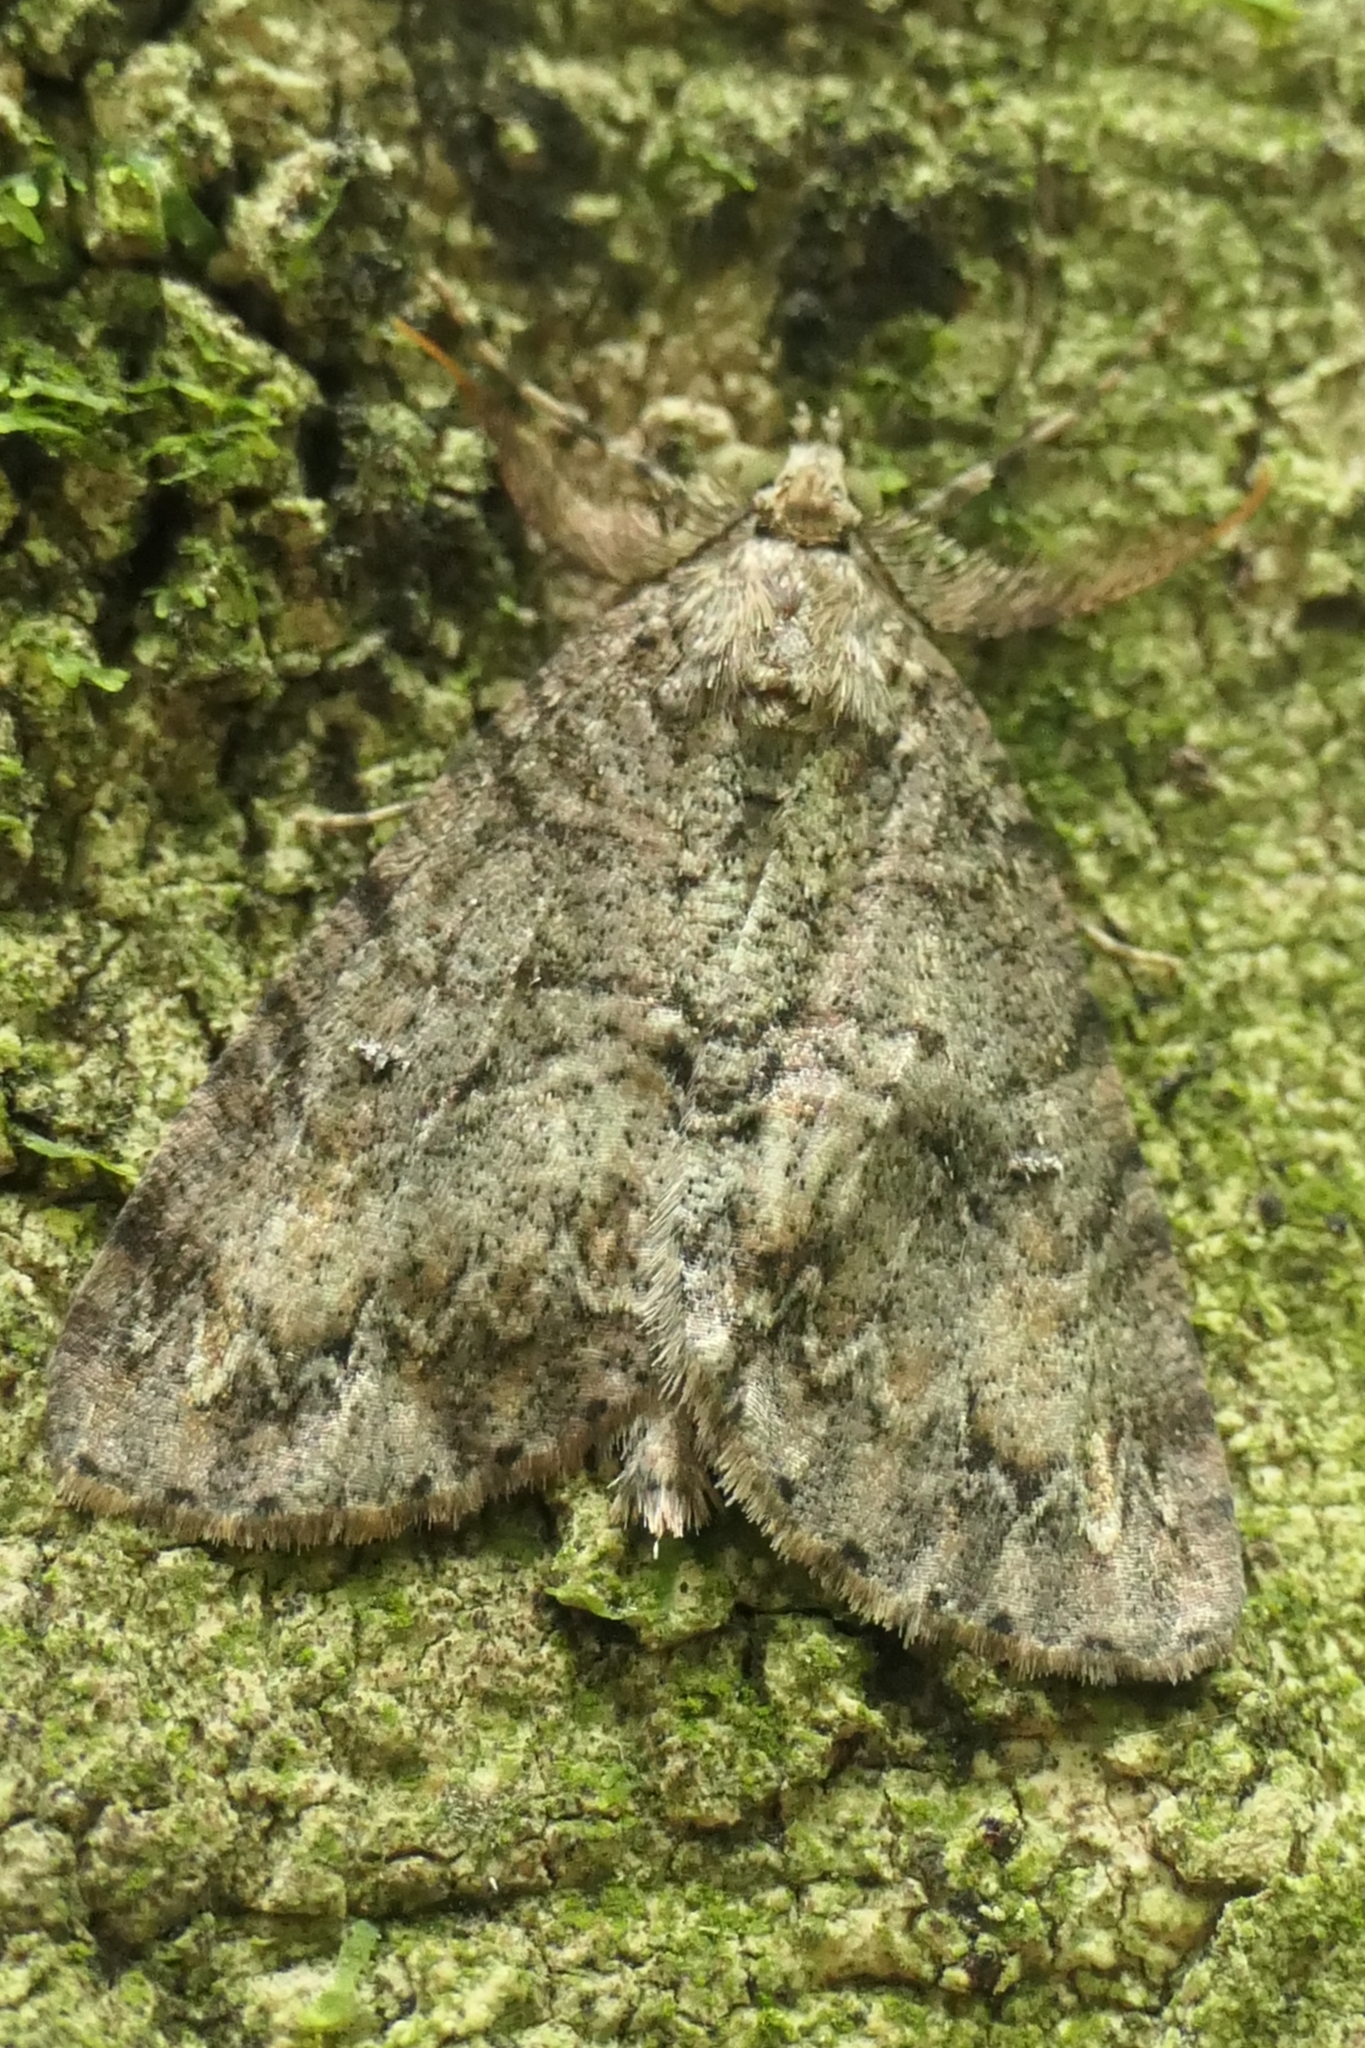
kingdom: Animalia
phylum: Arthropoda
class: Insecta
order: Lepidoptera
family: Geometridae
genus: Pseudocoremia
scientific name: Pseudocoremia suavis
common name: Common forest looper
